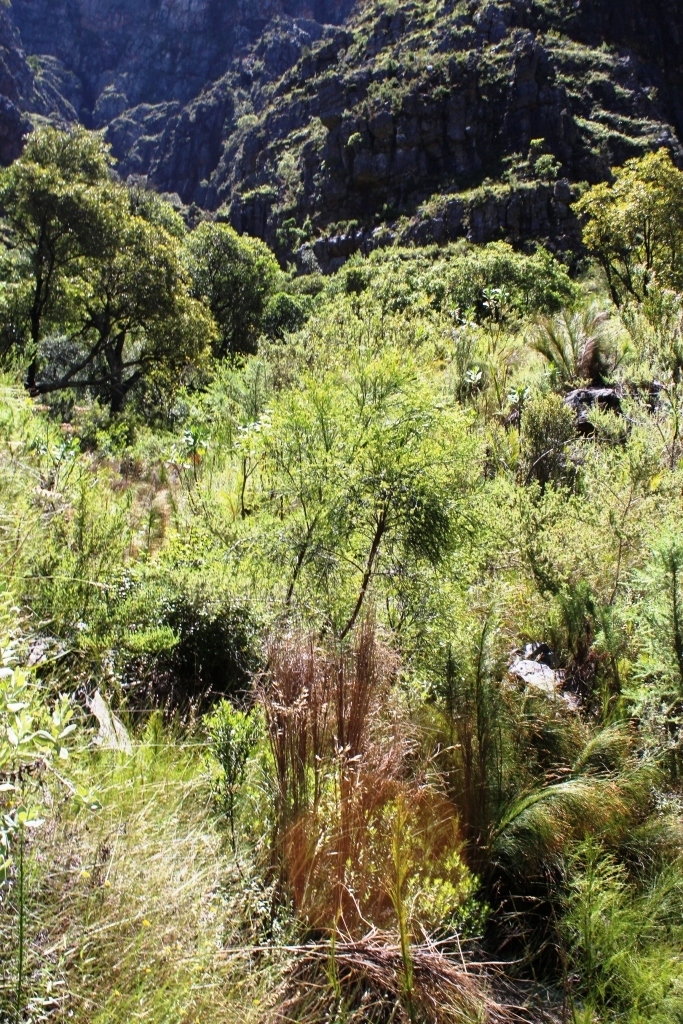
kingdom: Plantae
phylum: Tracheophyta
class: Magnoliopsida
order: Santalales
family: Thesiaceae
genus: Thesium
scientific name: Thesium strictum
